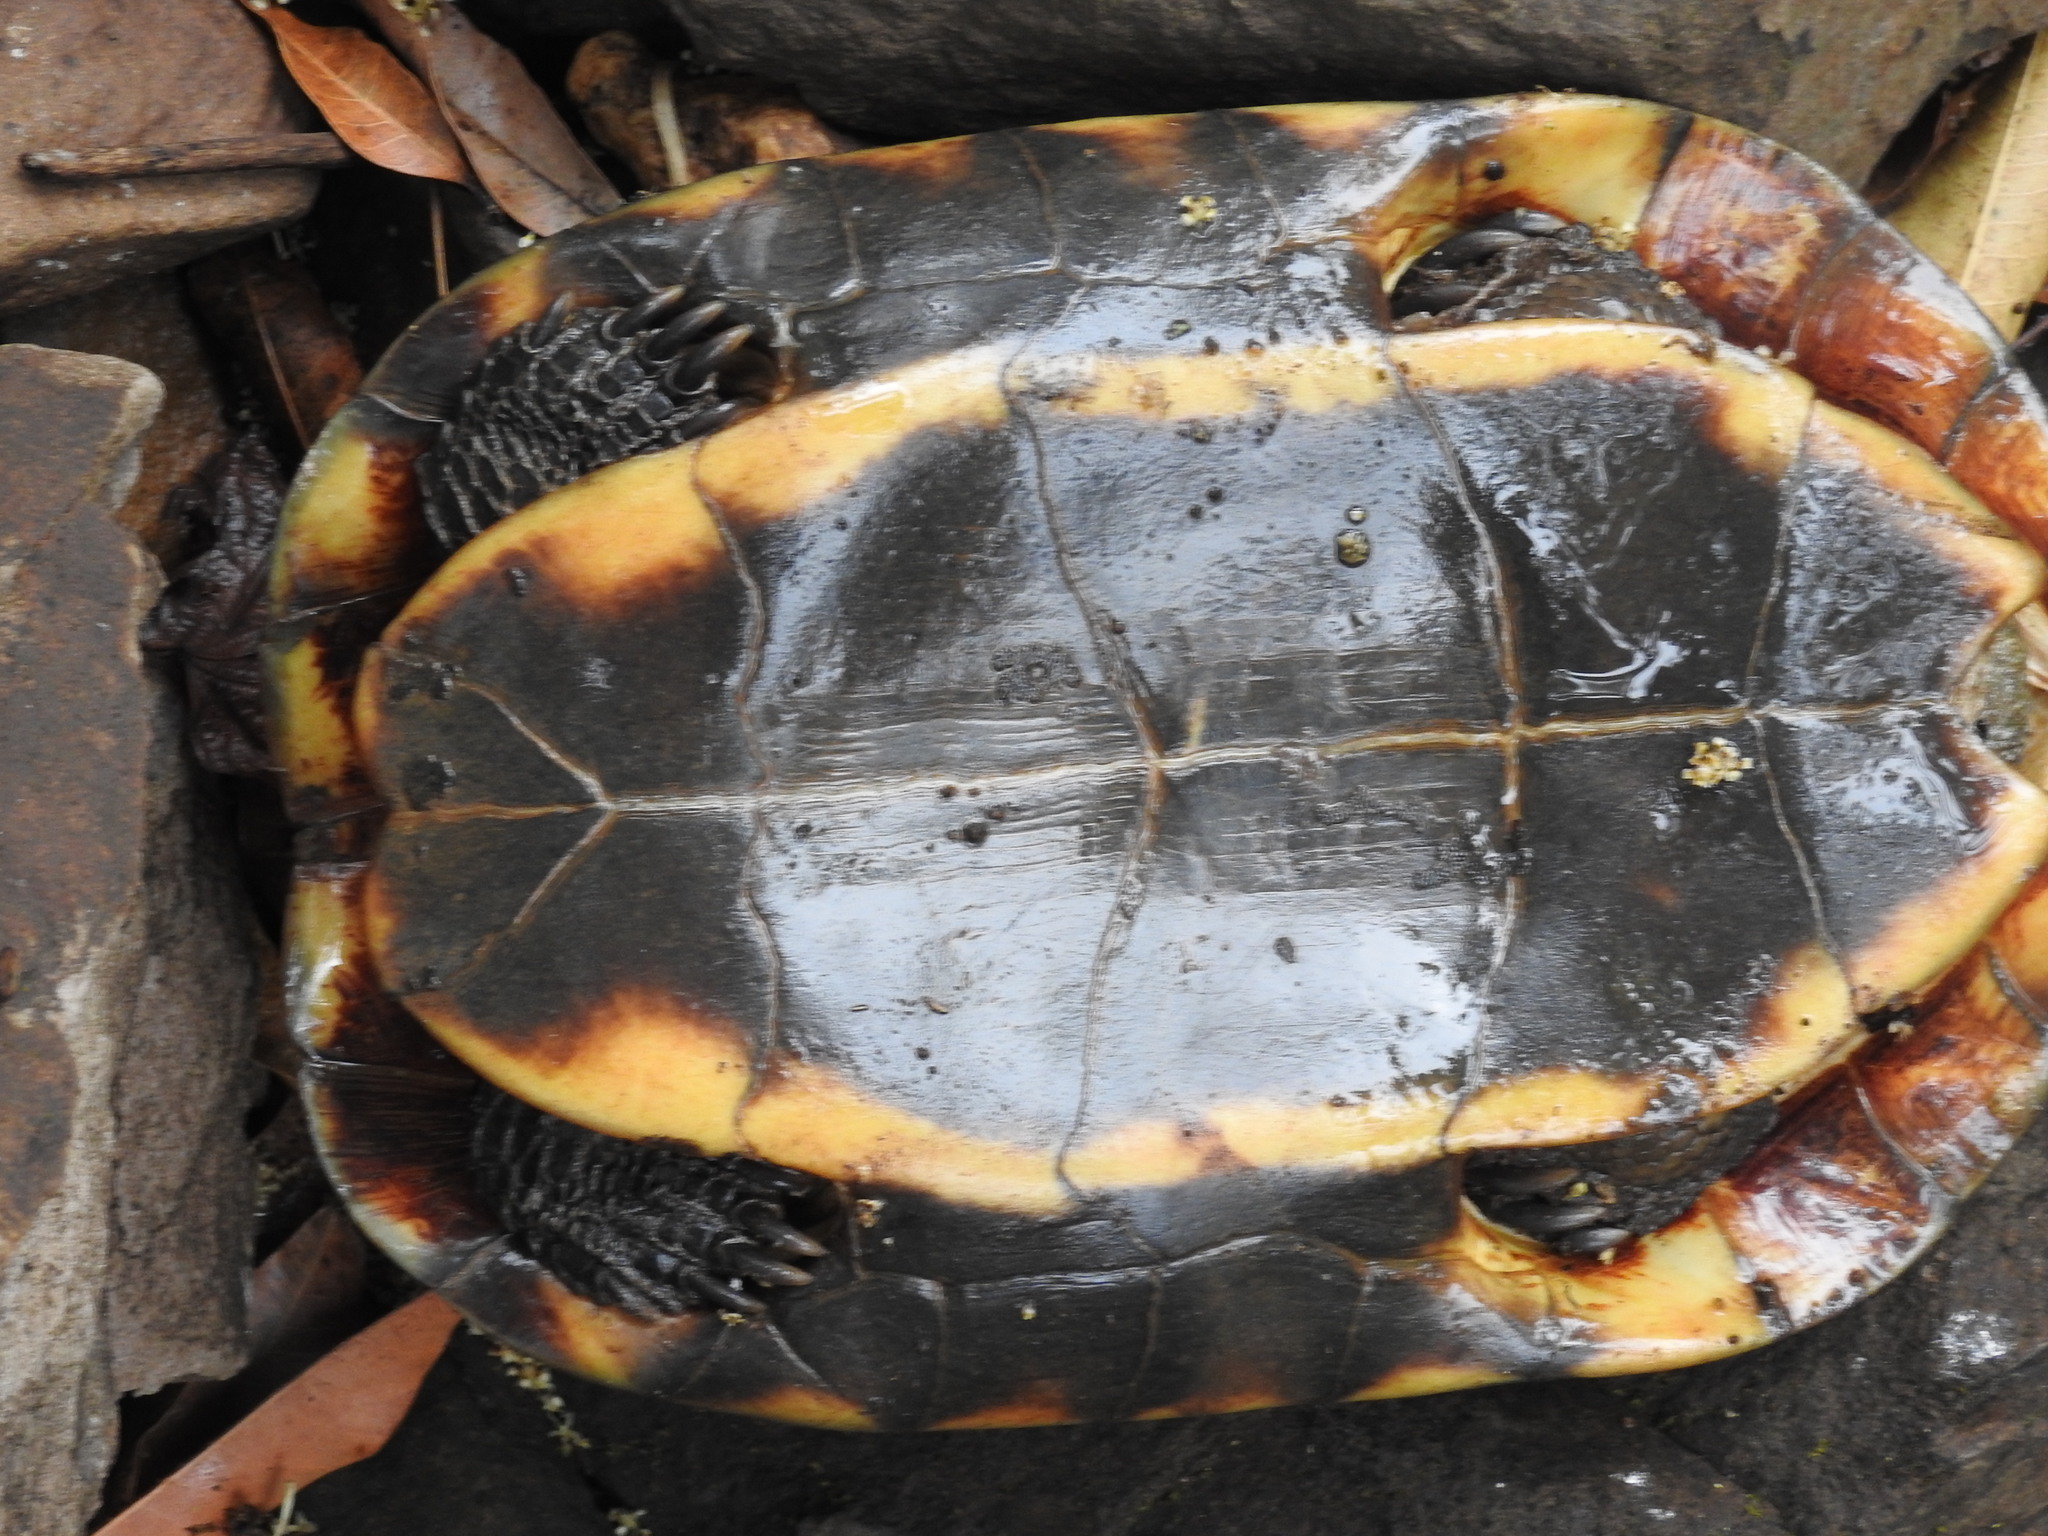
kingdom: Animalia
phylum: Chordata
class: Testudines
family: Geoemydidae
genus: Melanochelys
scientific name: Melanochelys trijuga
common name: Indian black turtle
